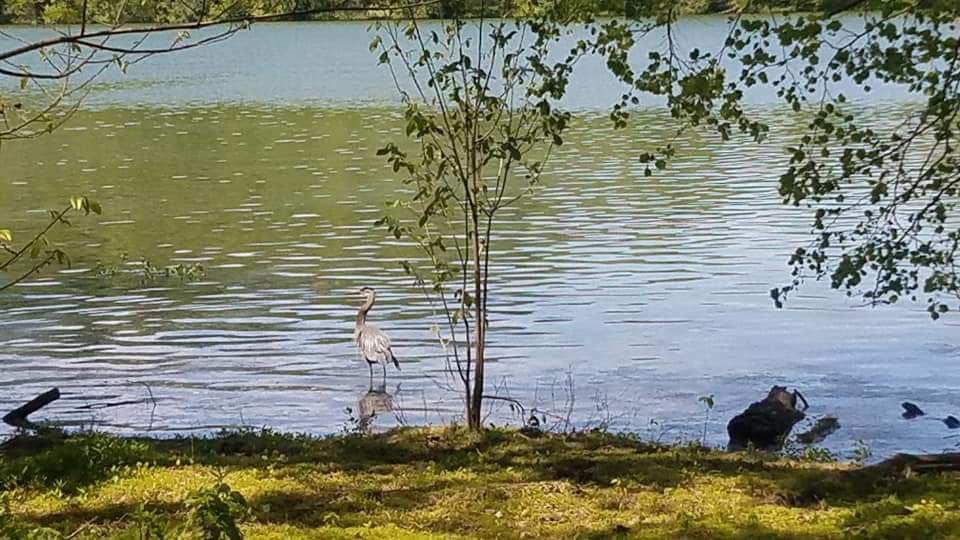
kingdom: Animalia
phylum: Chordata
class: Aves
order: Pelecaniformes
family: Ardeidae
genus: Ardea
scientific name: Ardea herodias
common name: Great blue heron
